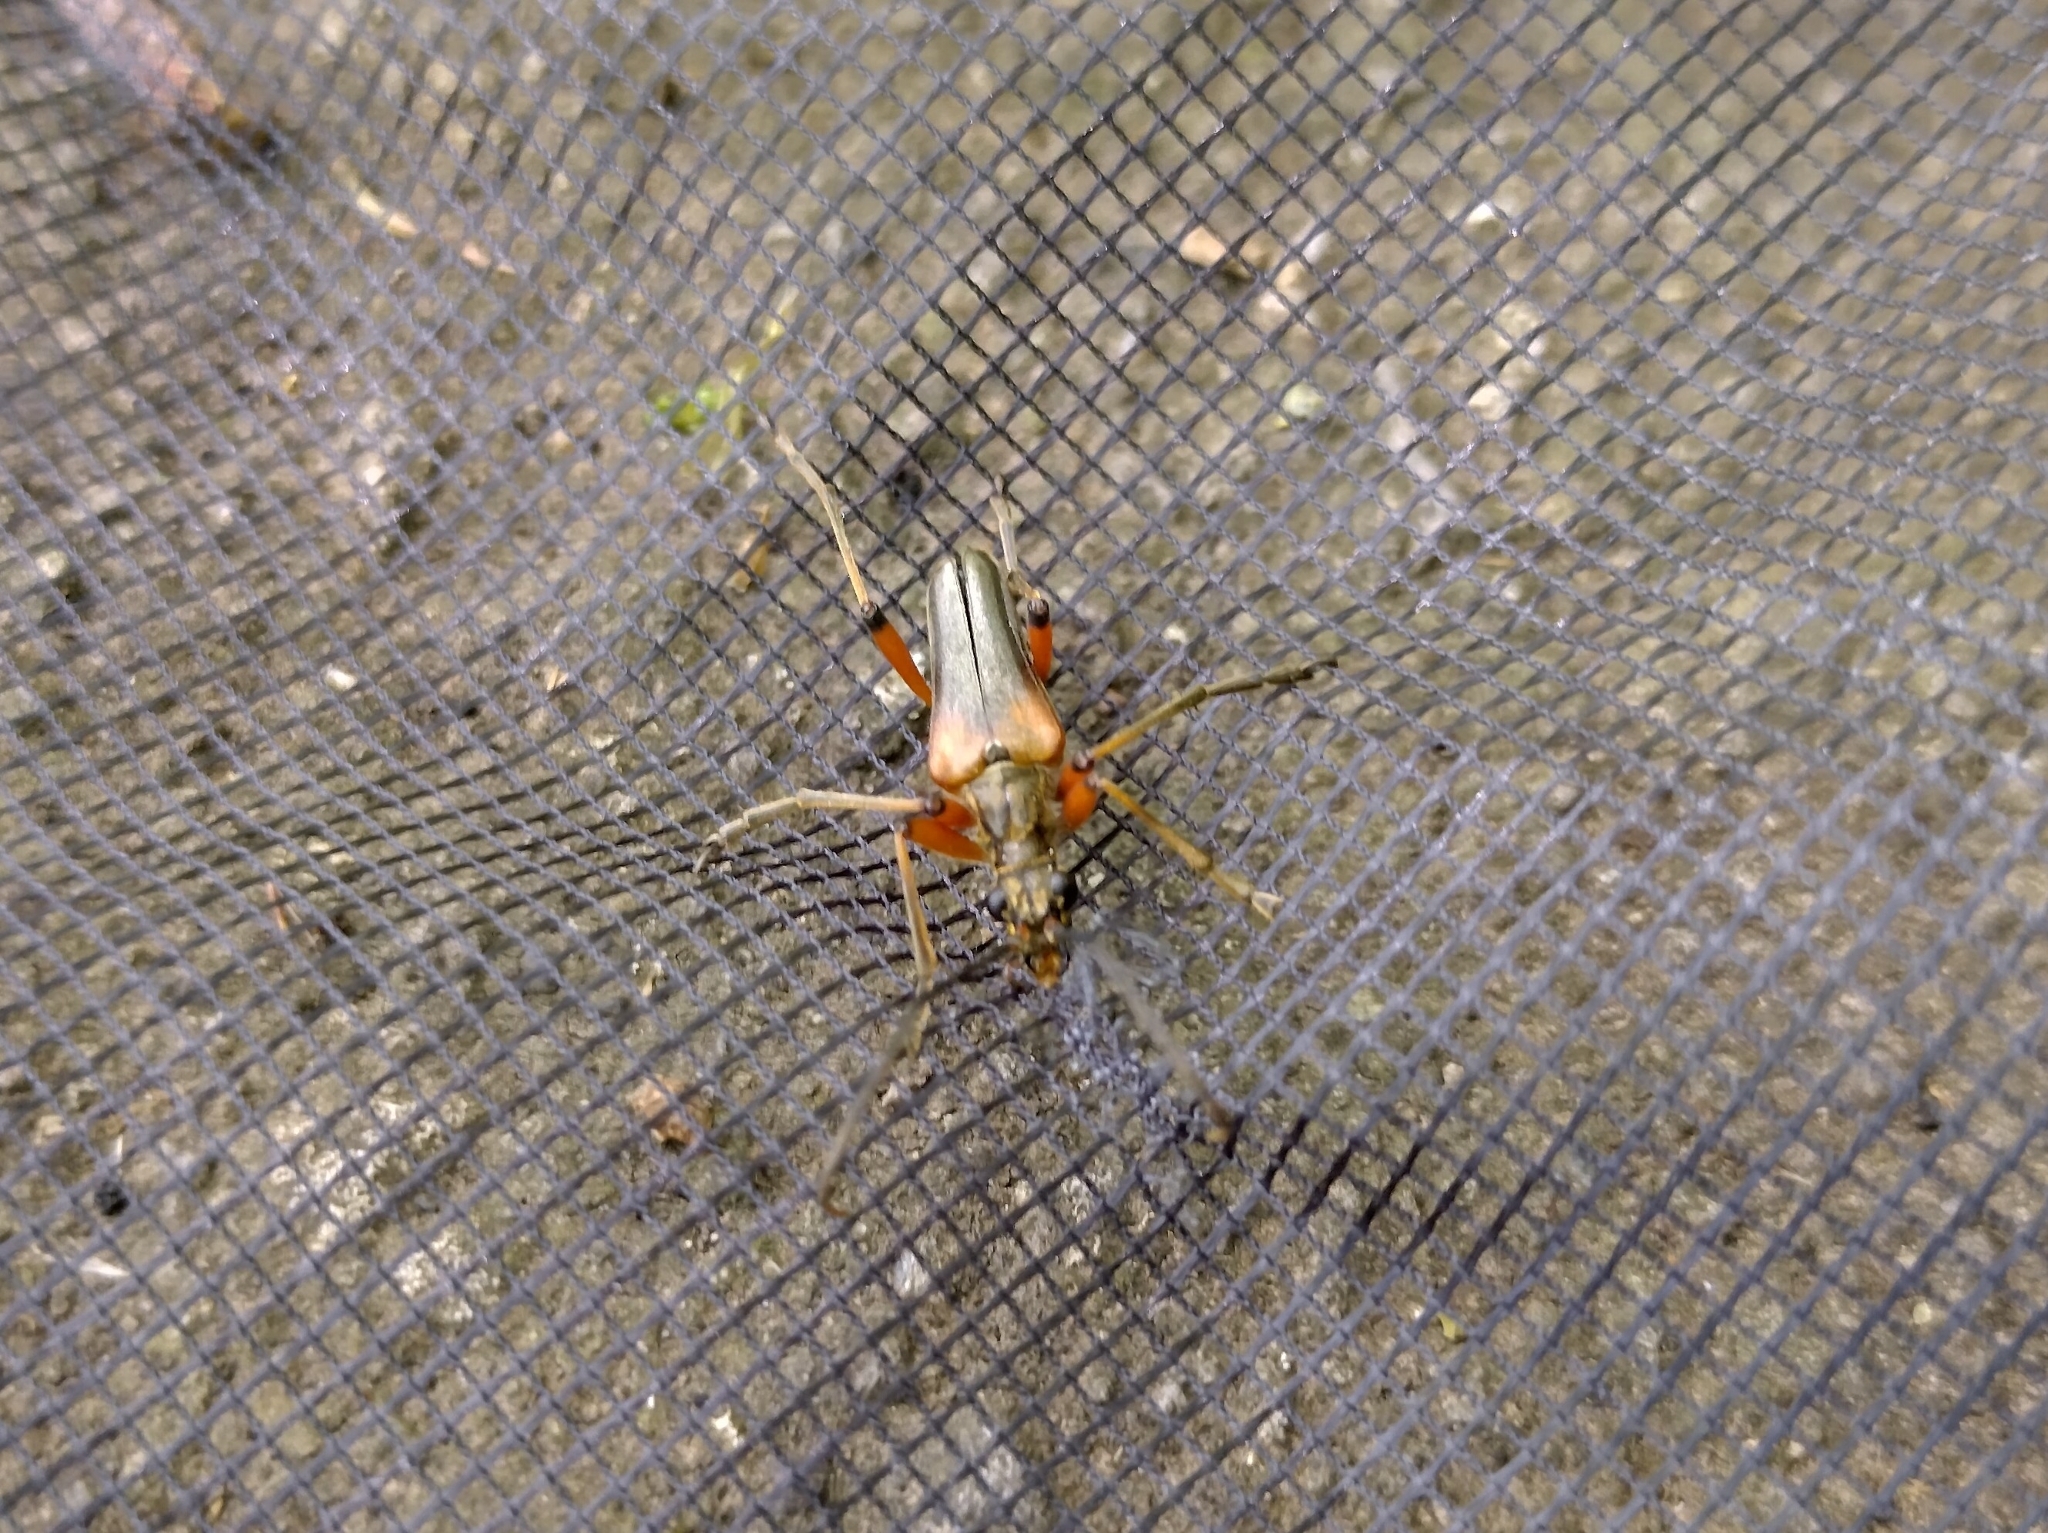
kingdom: Animalia
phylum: Arthropoda
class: Insecta
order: Coleoptera
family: Cerambycidae
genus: Stenocorus
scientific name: Stenocorus meridianus
